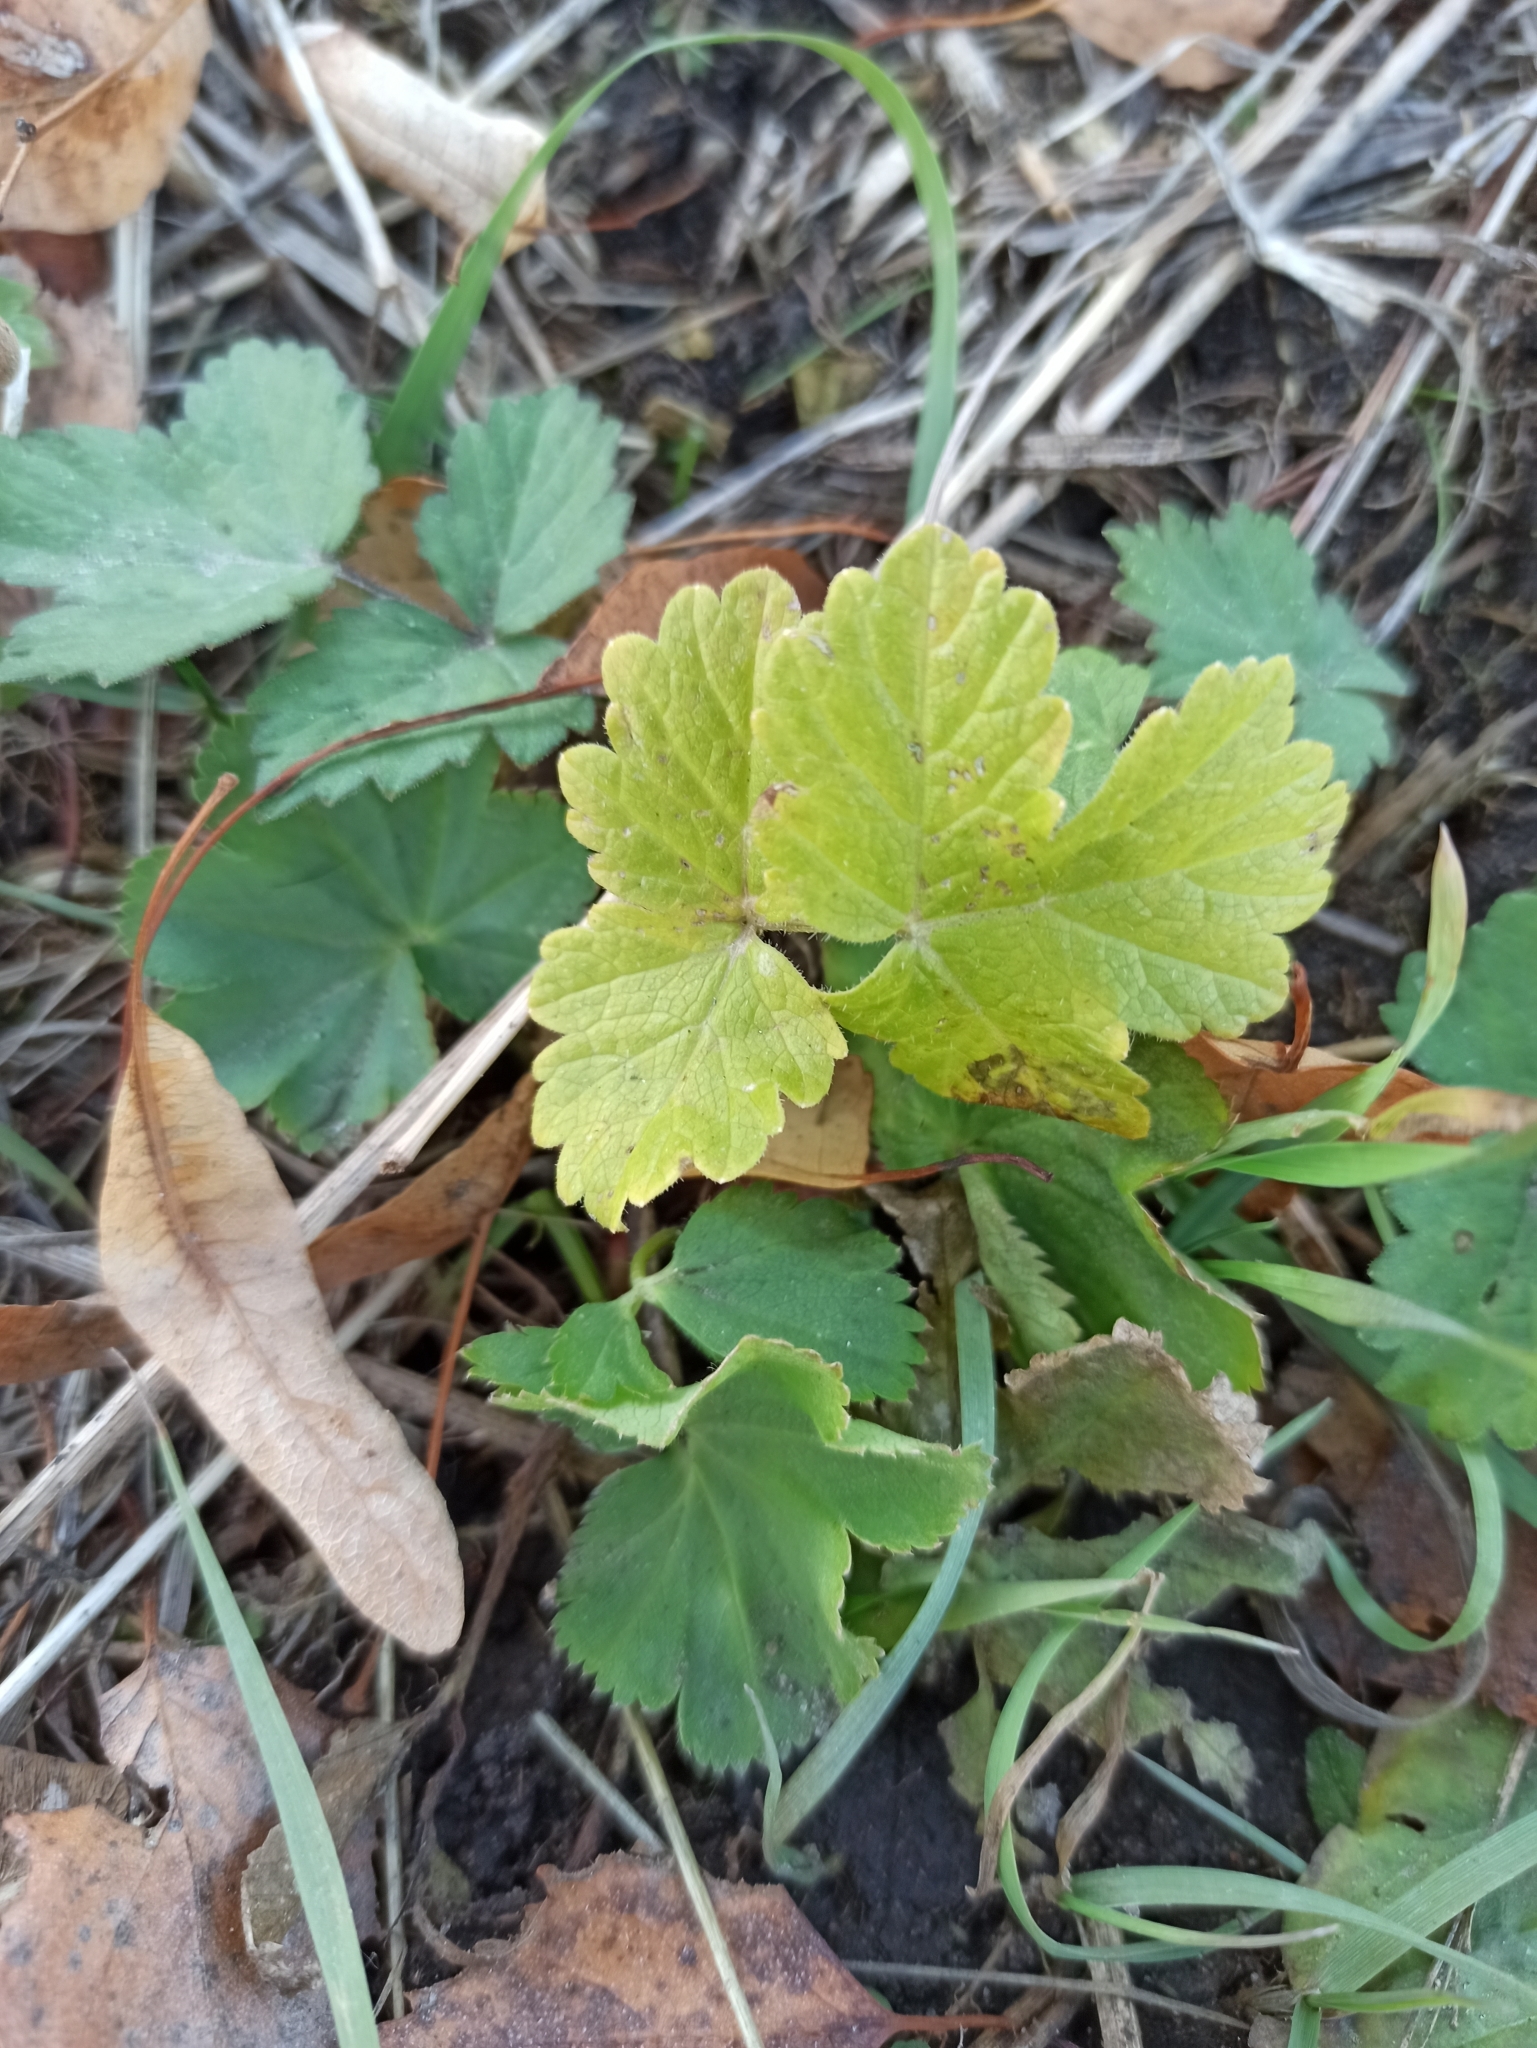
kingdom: Plantae
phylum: Tracheophyta
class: Magnoliopsida
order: Apiales
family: Apiaceae
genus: Pastinaca
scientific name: Pastinaca sativa
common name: Wild parsnip
